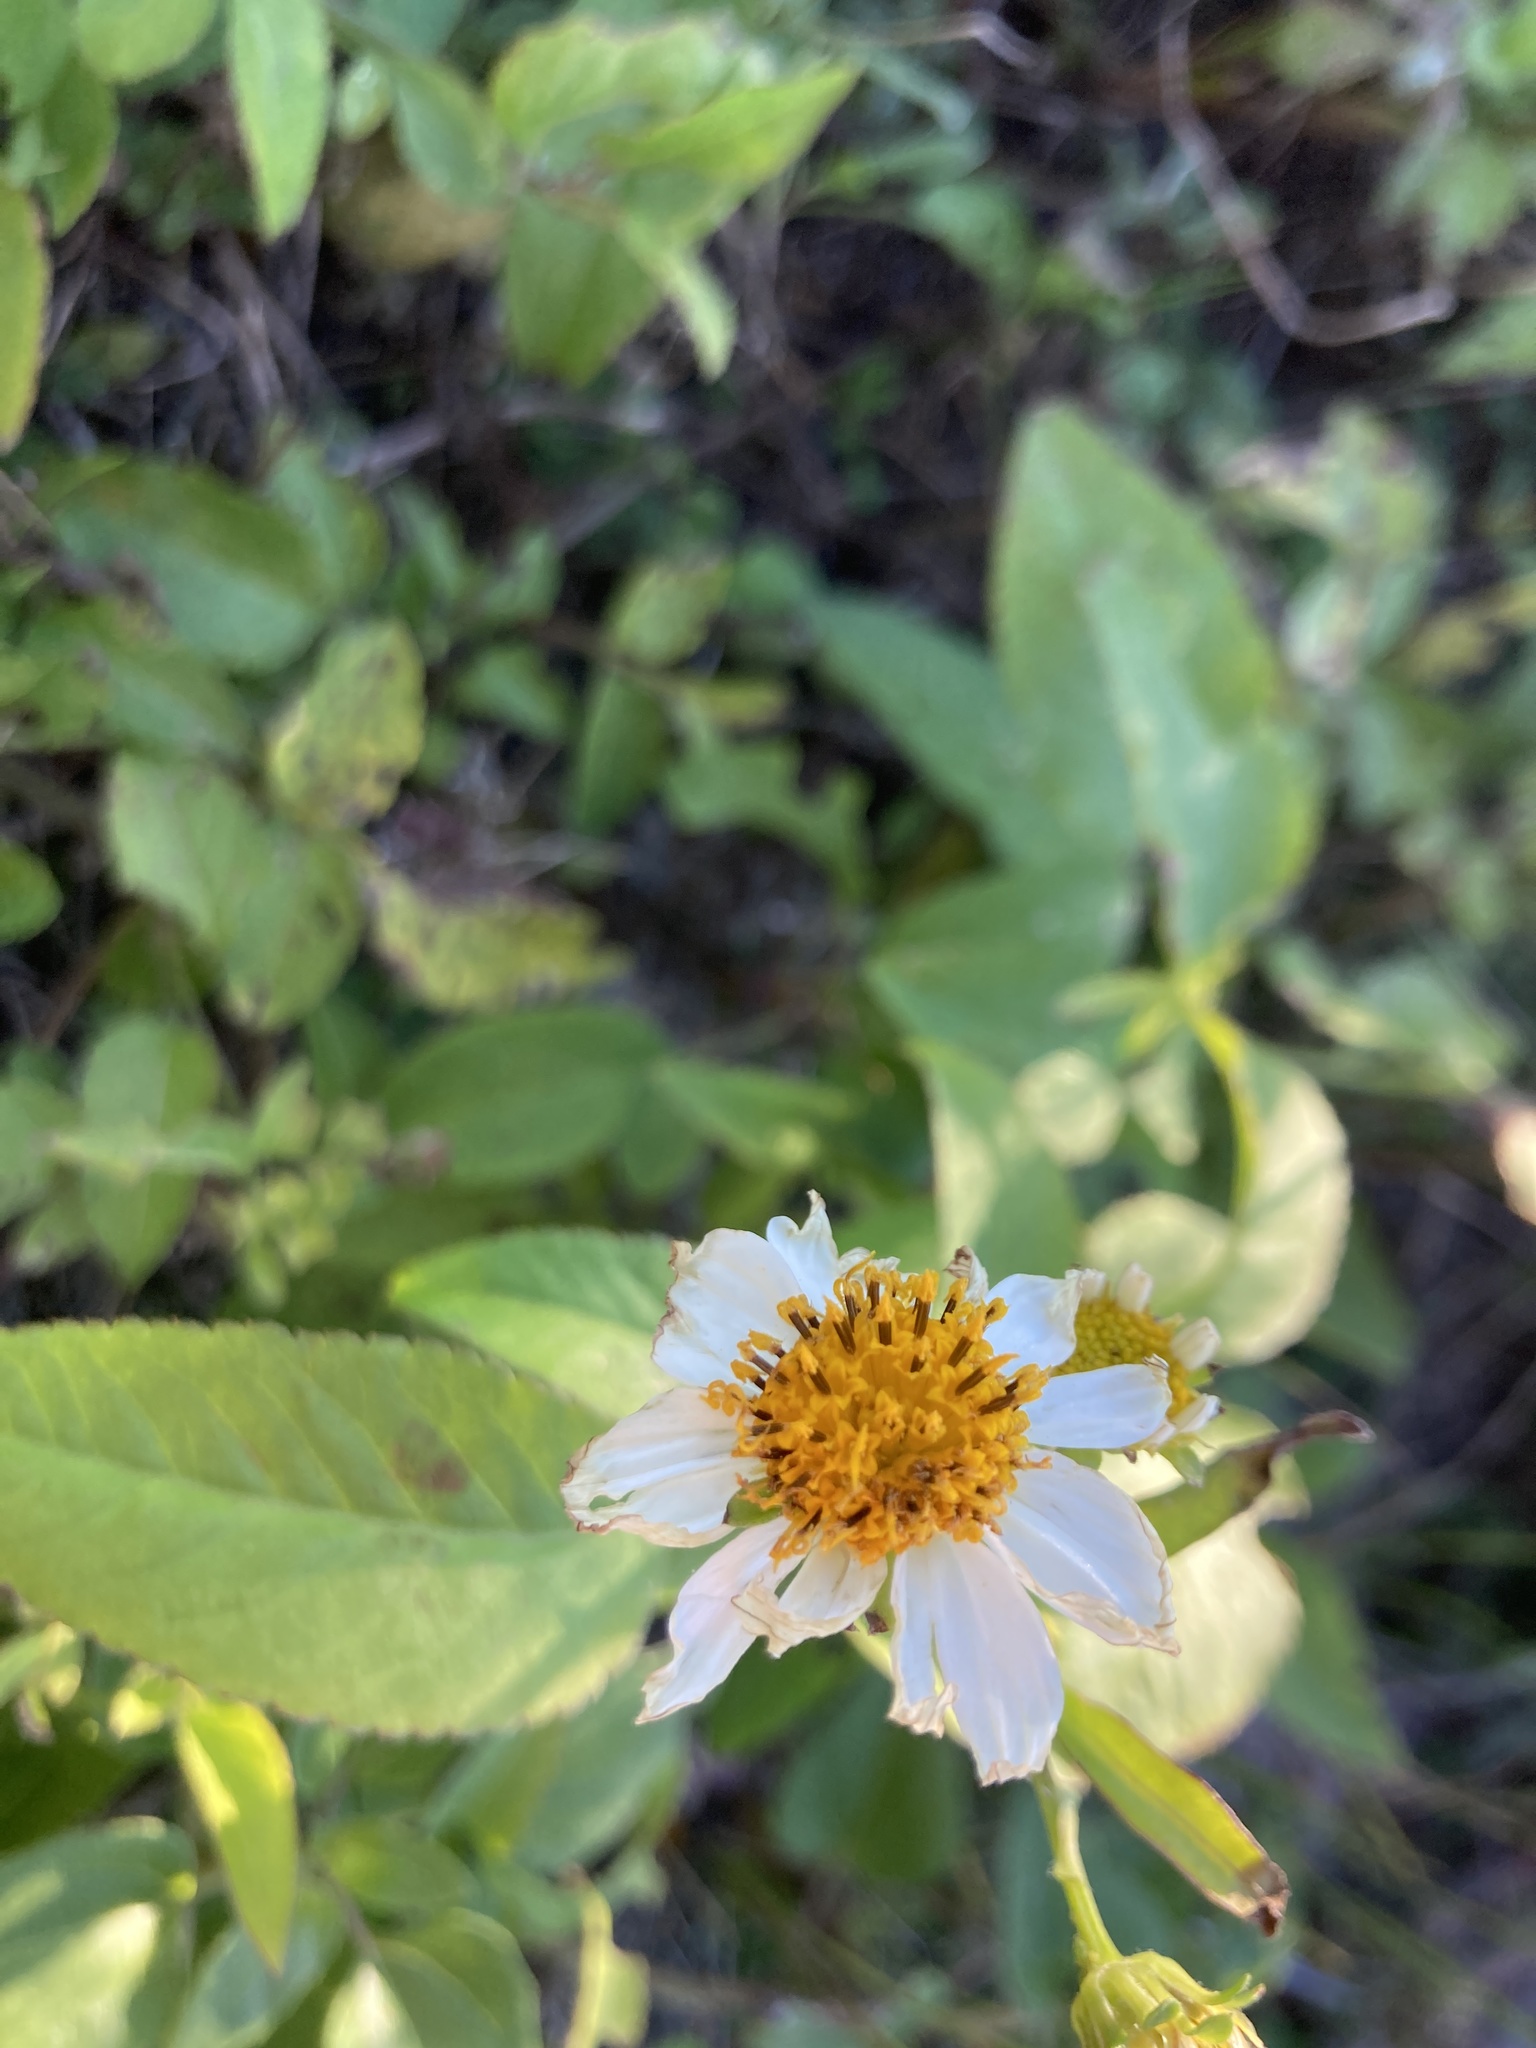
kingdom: Plantae
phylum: Tracheophyta
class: Magnoliopsida
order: Asterales
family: Asteraceae
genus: Bidens
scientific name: Bidens alba
